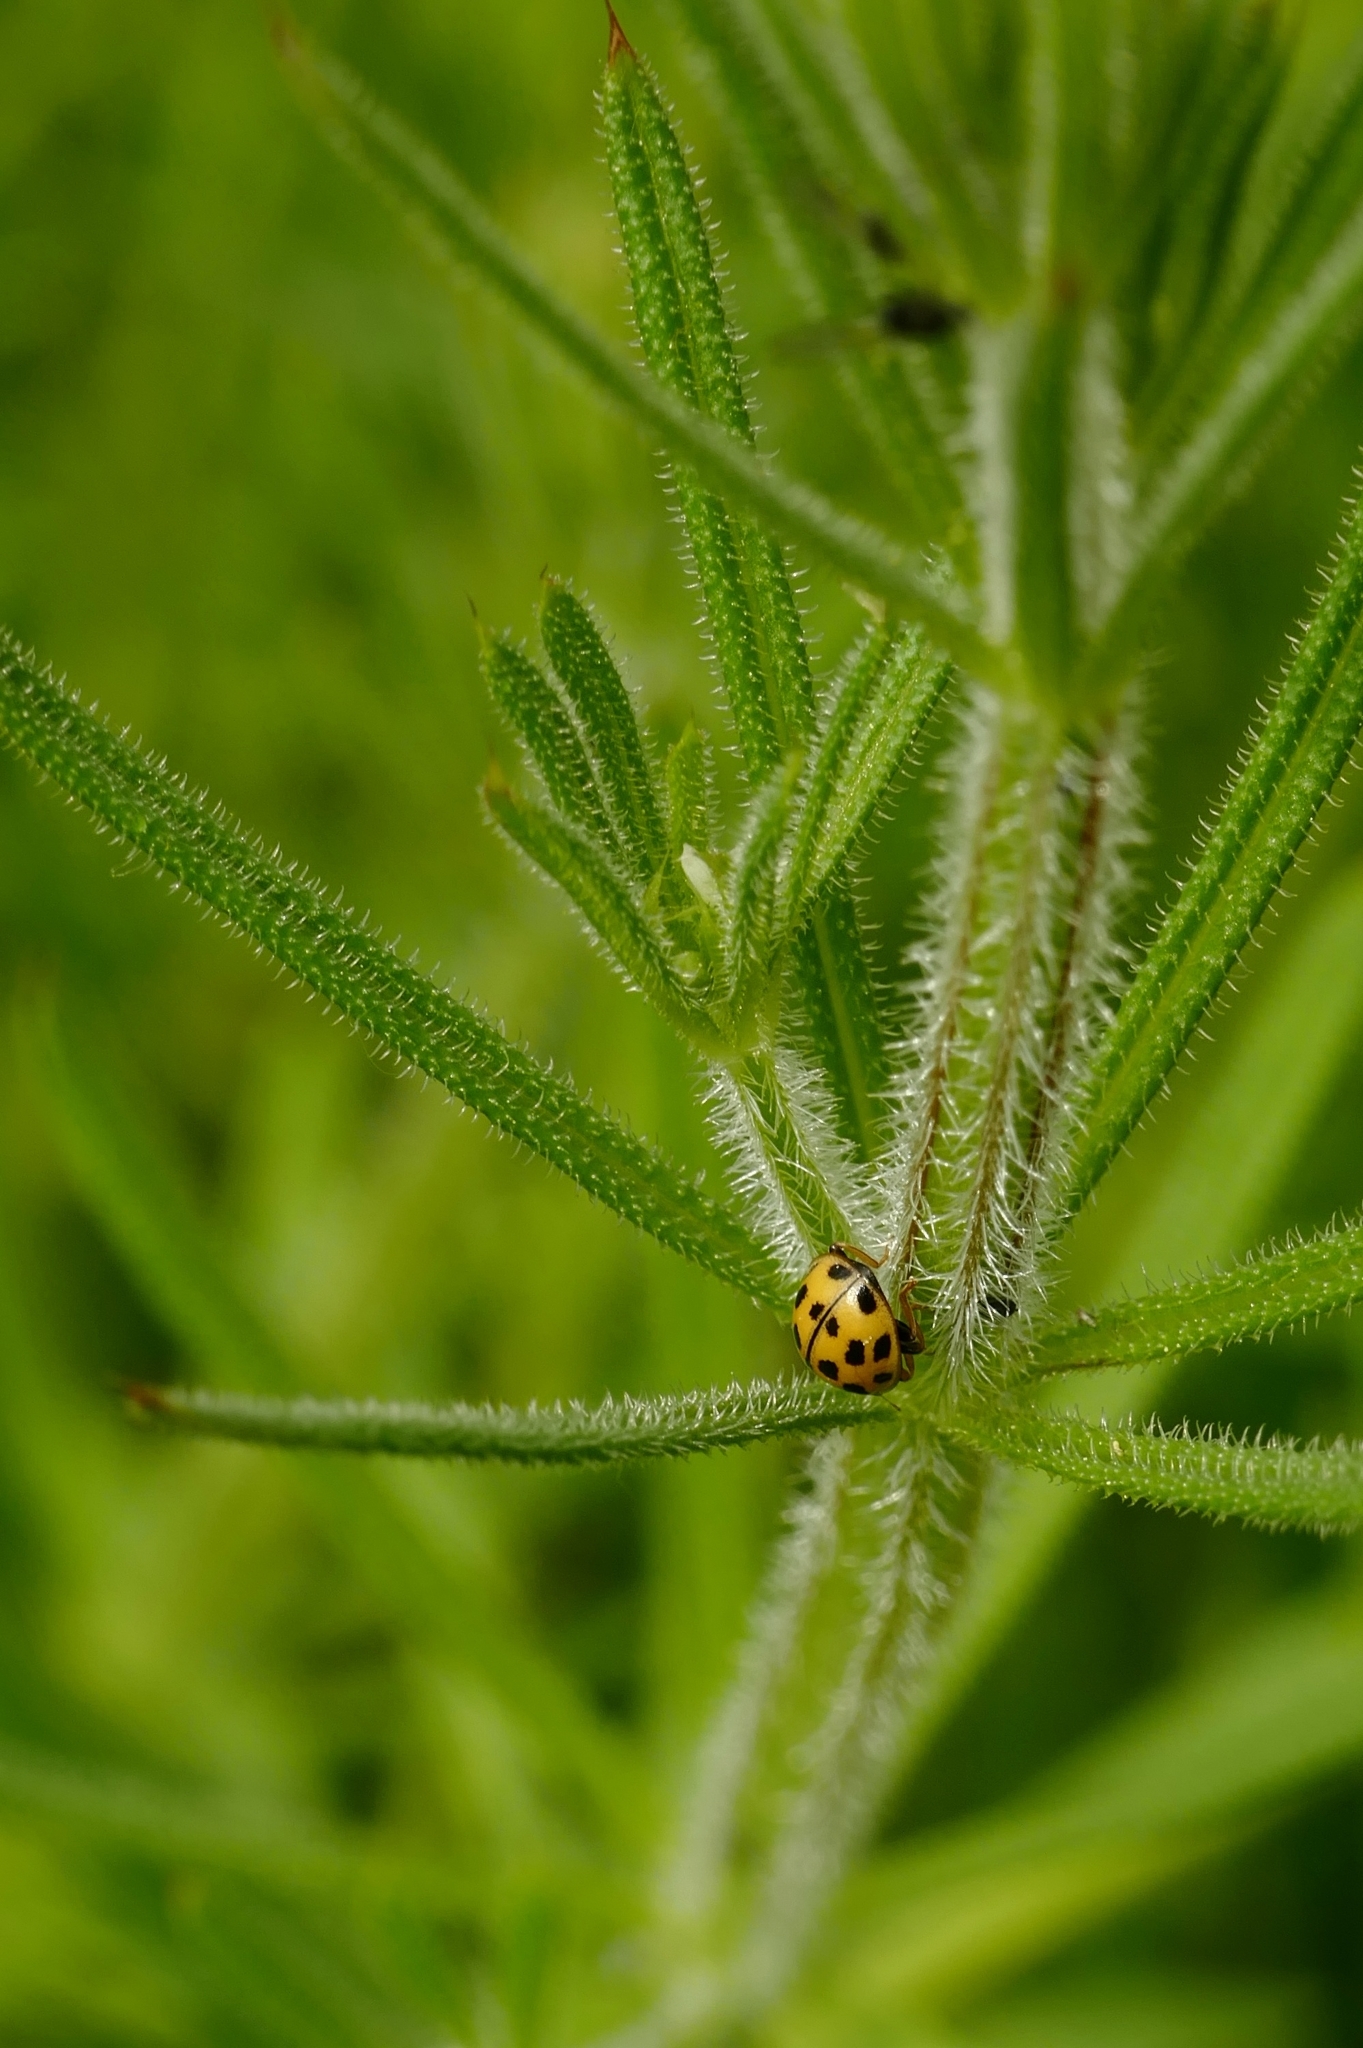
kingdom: Animalia
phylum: Arthropoda
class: Insecta
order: Coleoptera
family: Coccinellidae
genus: Propylaea
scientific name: Propylaea quatuordecimpunctata
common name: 14-spotted ladybird beetle
